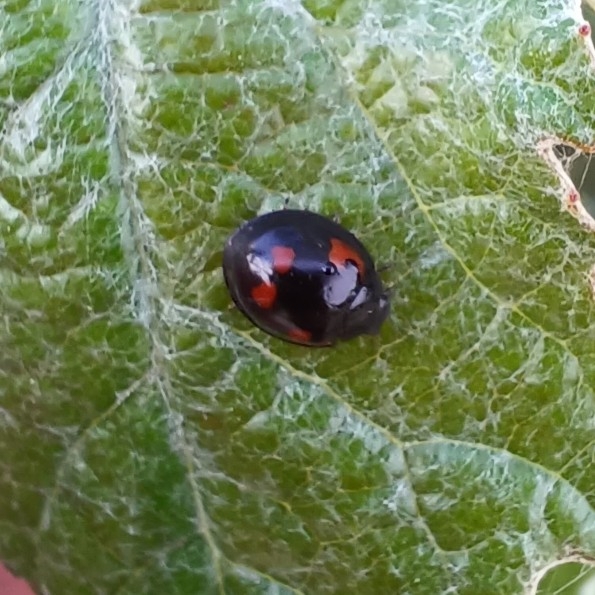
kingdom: Animalia
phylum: Arthropoda
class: Insecta
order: Coleoptera
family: Coccinellidae
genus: Brumus
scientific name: Brumus quadripustulatus
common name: Ladybird beetle
